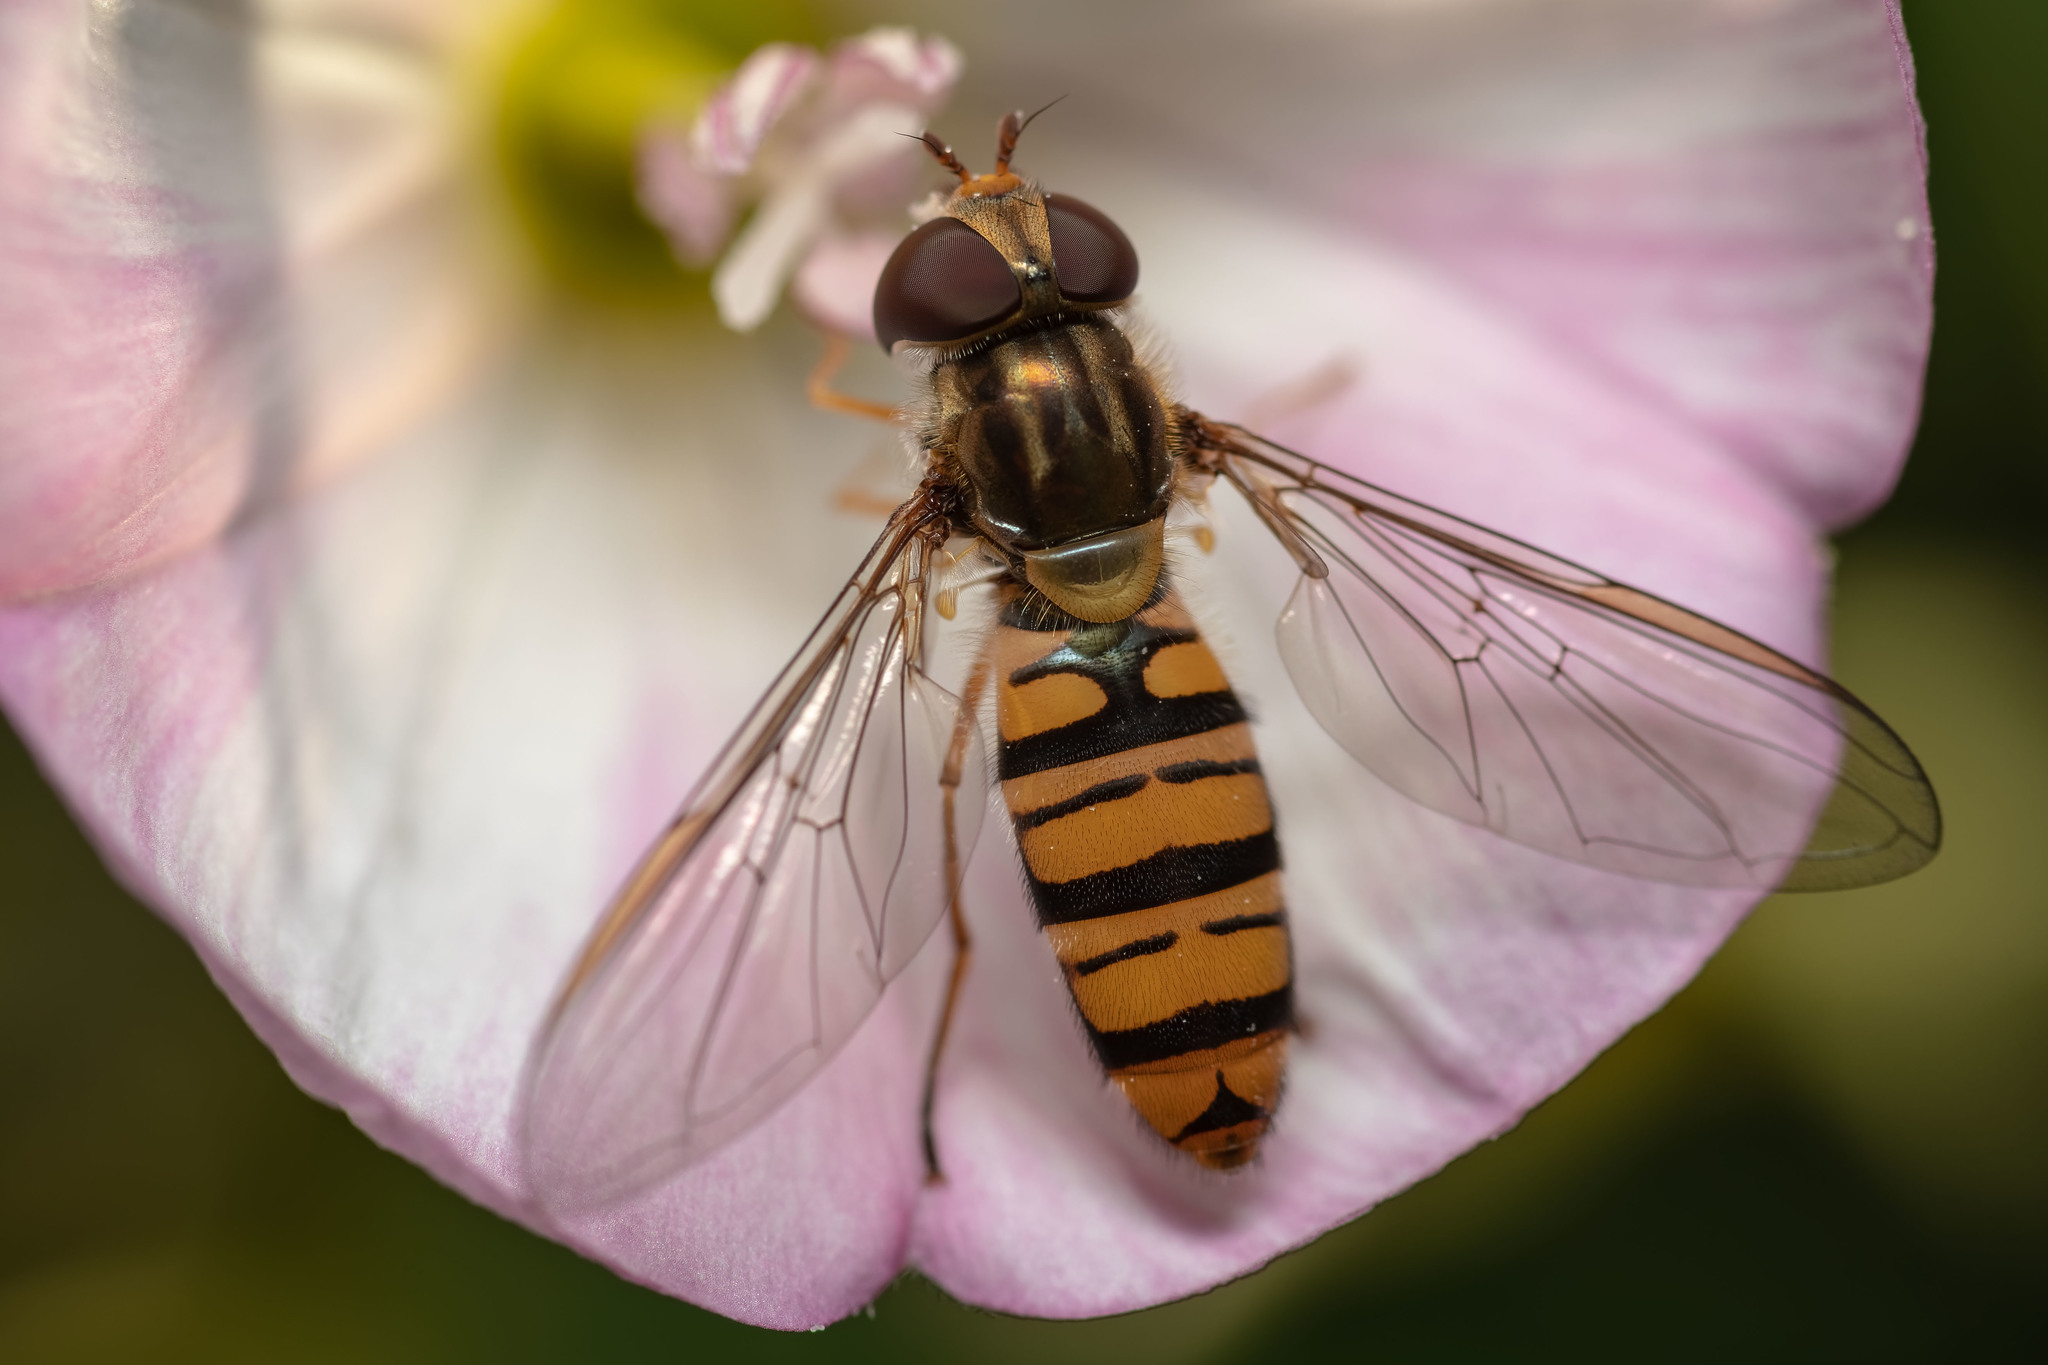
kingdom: Animalia
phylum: Arthropoda
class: Insecta
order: Diptera
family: Syrphidae
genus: Episyrphus
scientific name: Episyrphus balteatus
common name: Marmalade hoverfly
